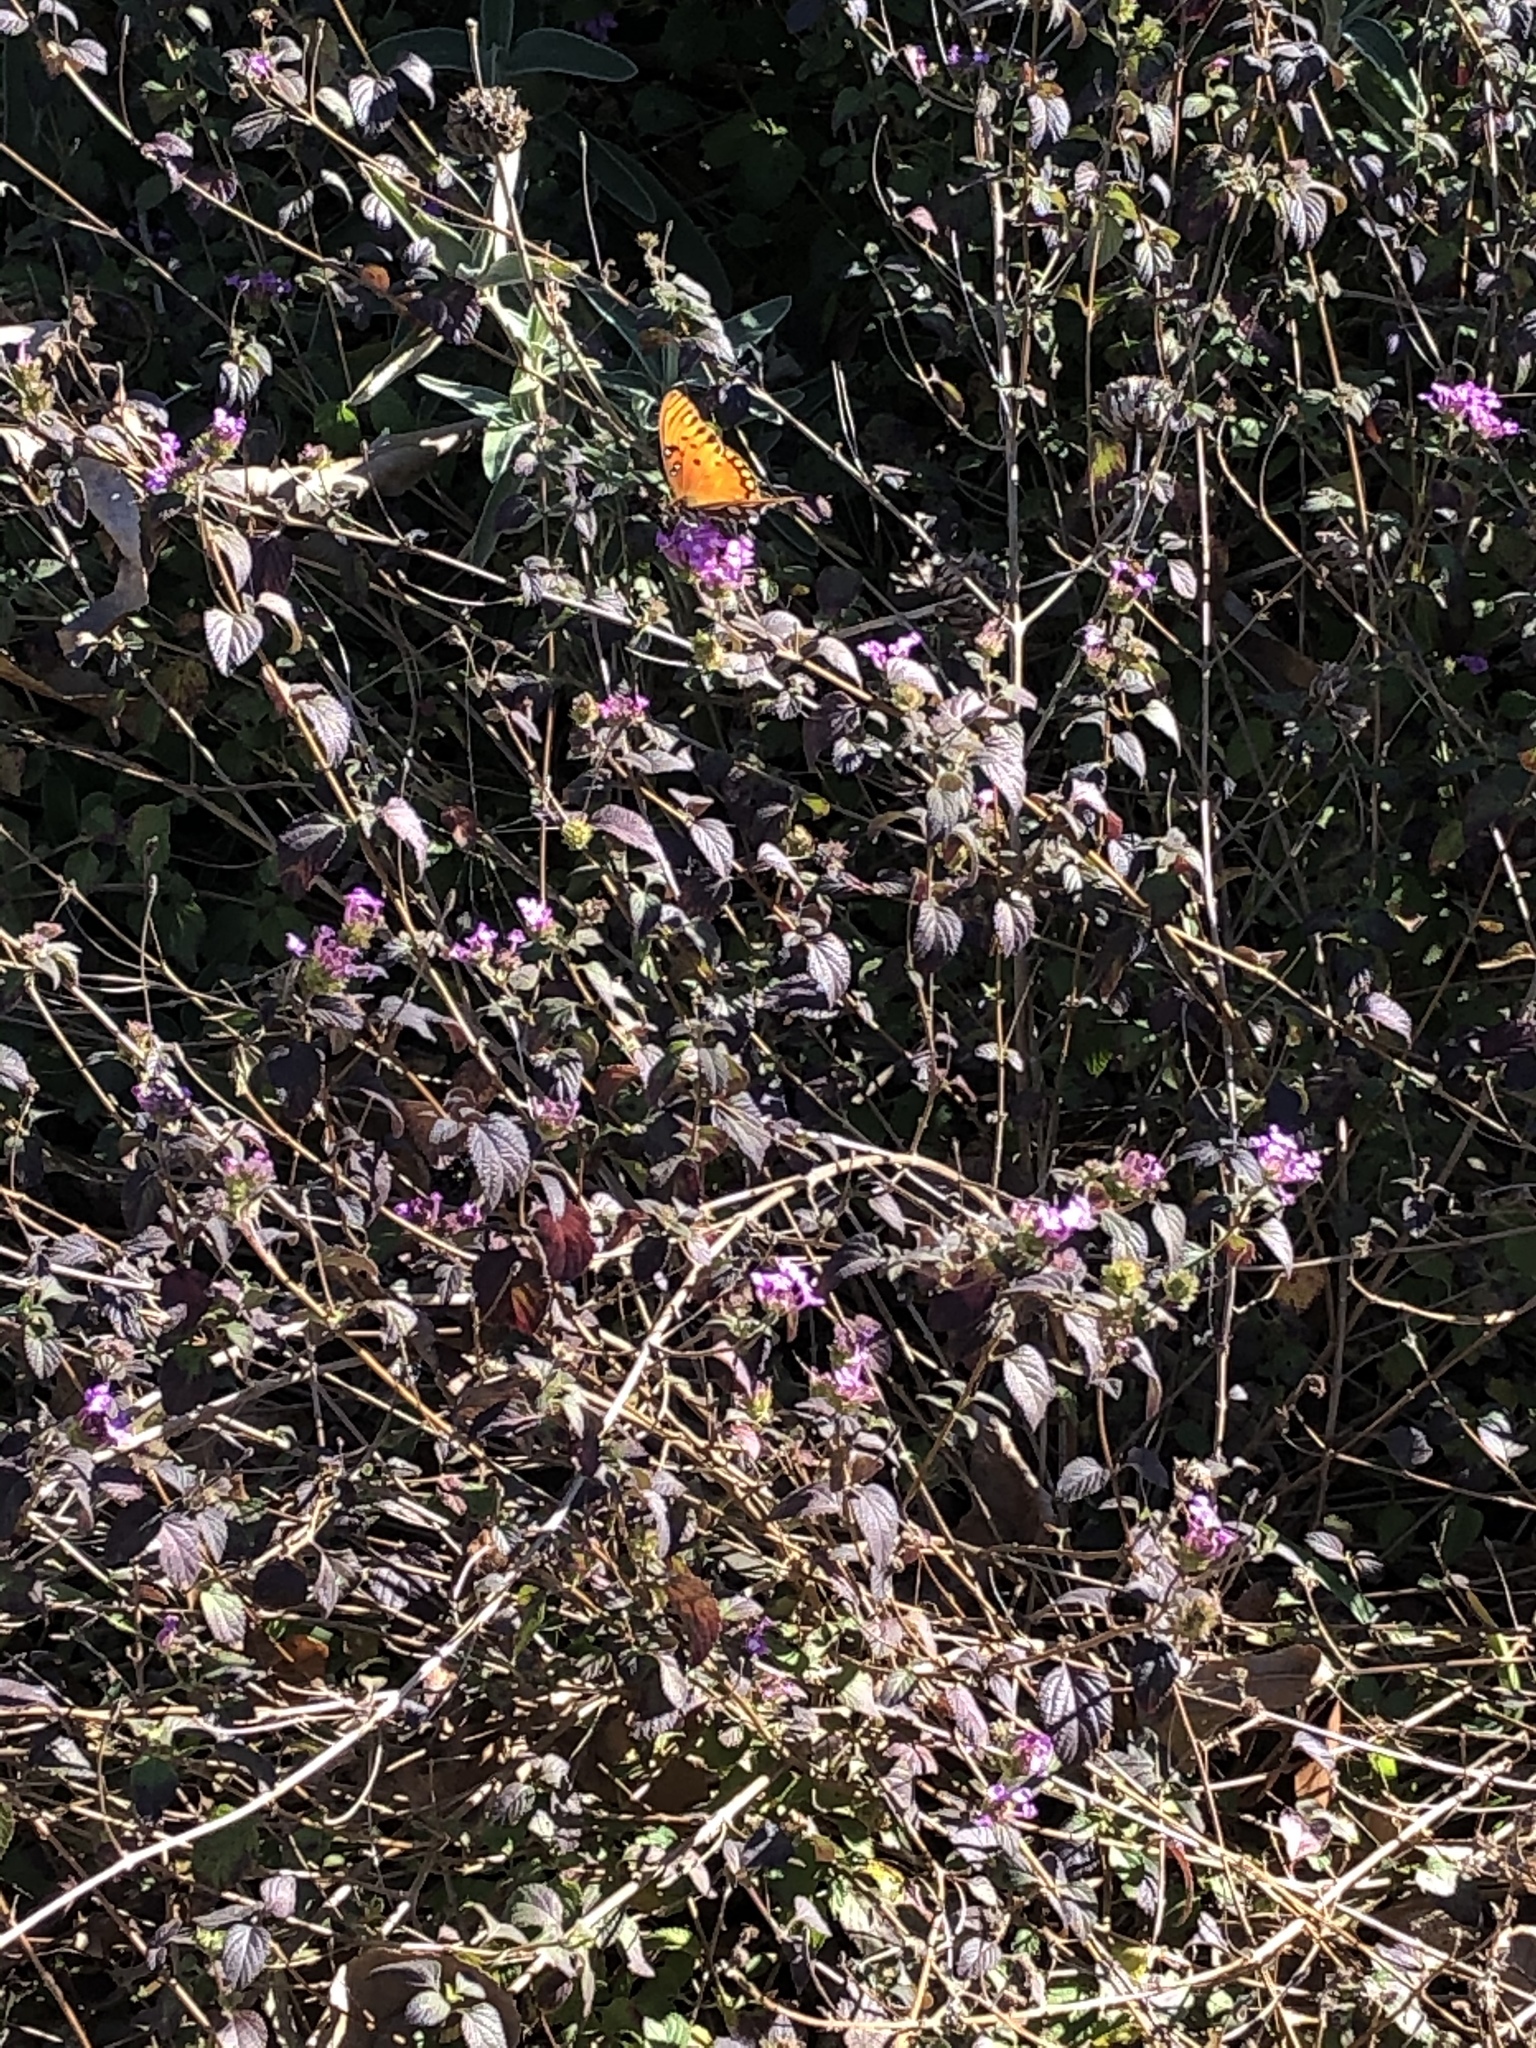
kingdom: Animalia
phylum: Arthropoda
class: Insecta
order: Lepidoptera
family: Nymphalidae
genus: Dione
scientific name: Dione vanillae
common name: Gulf fritillary
